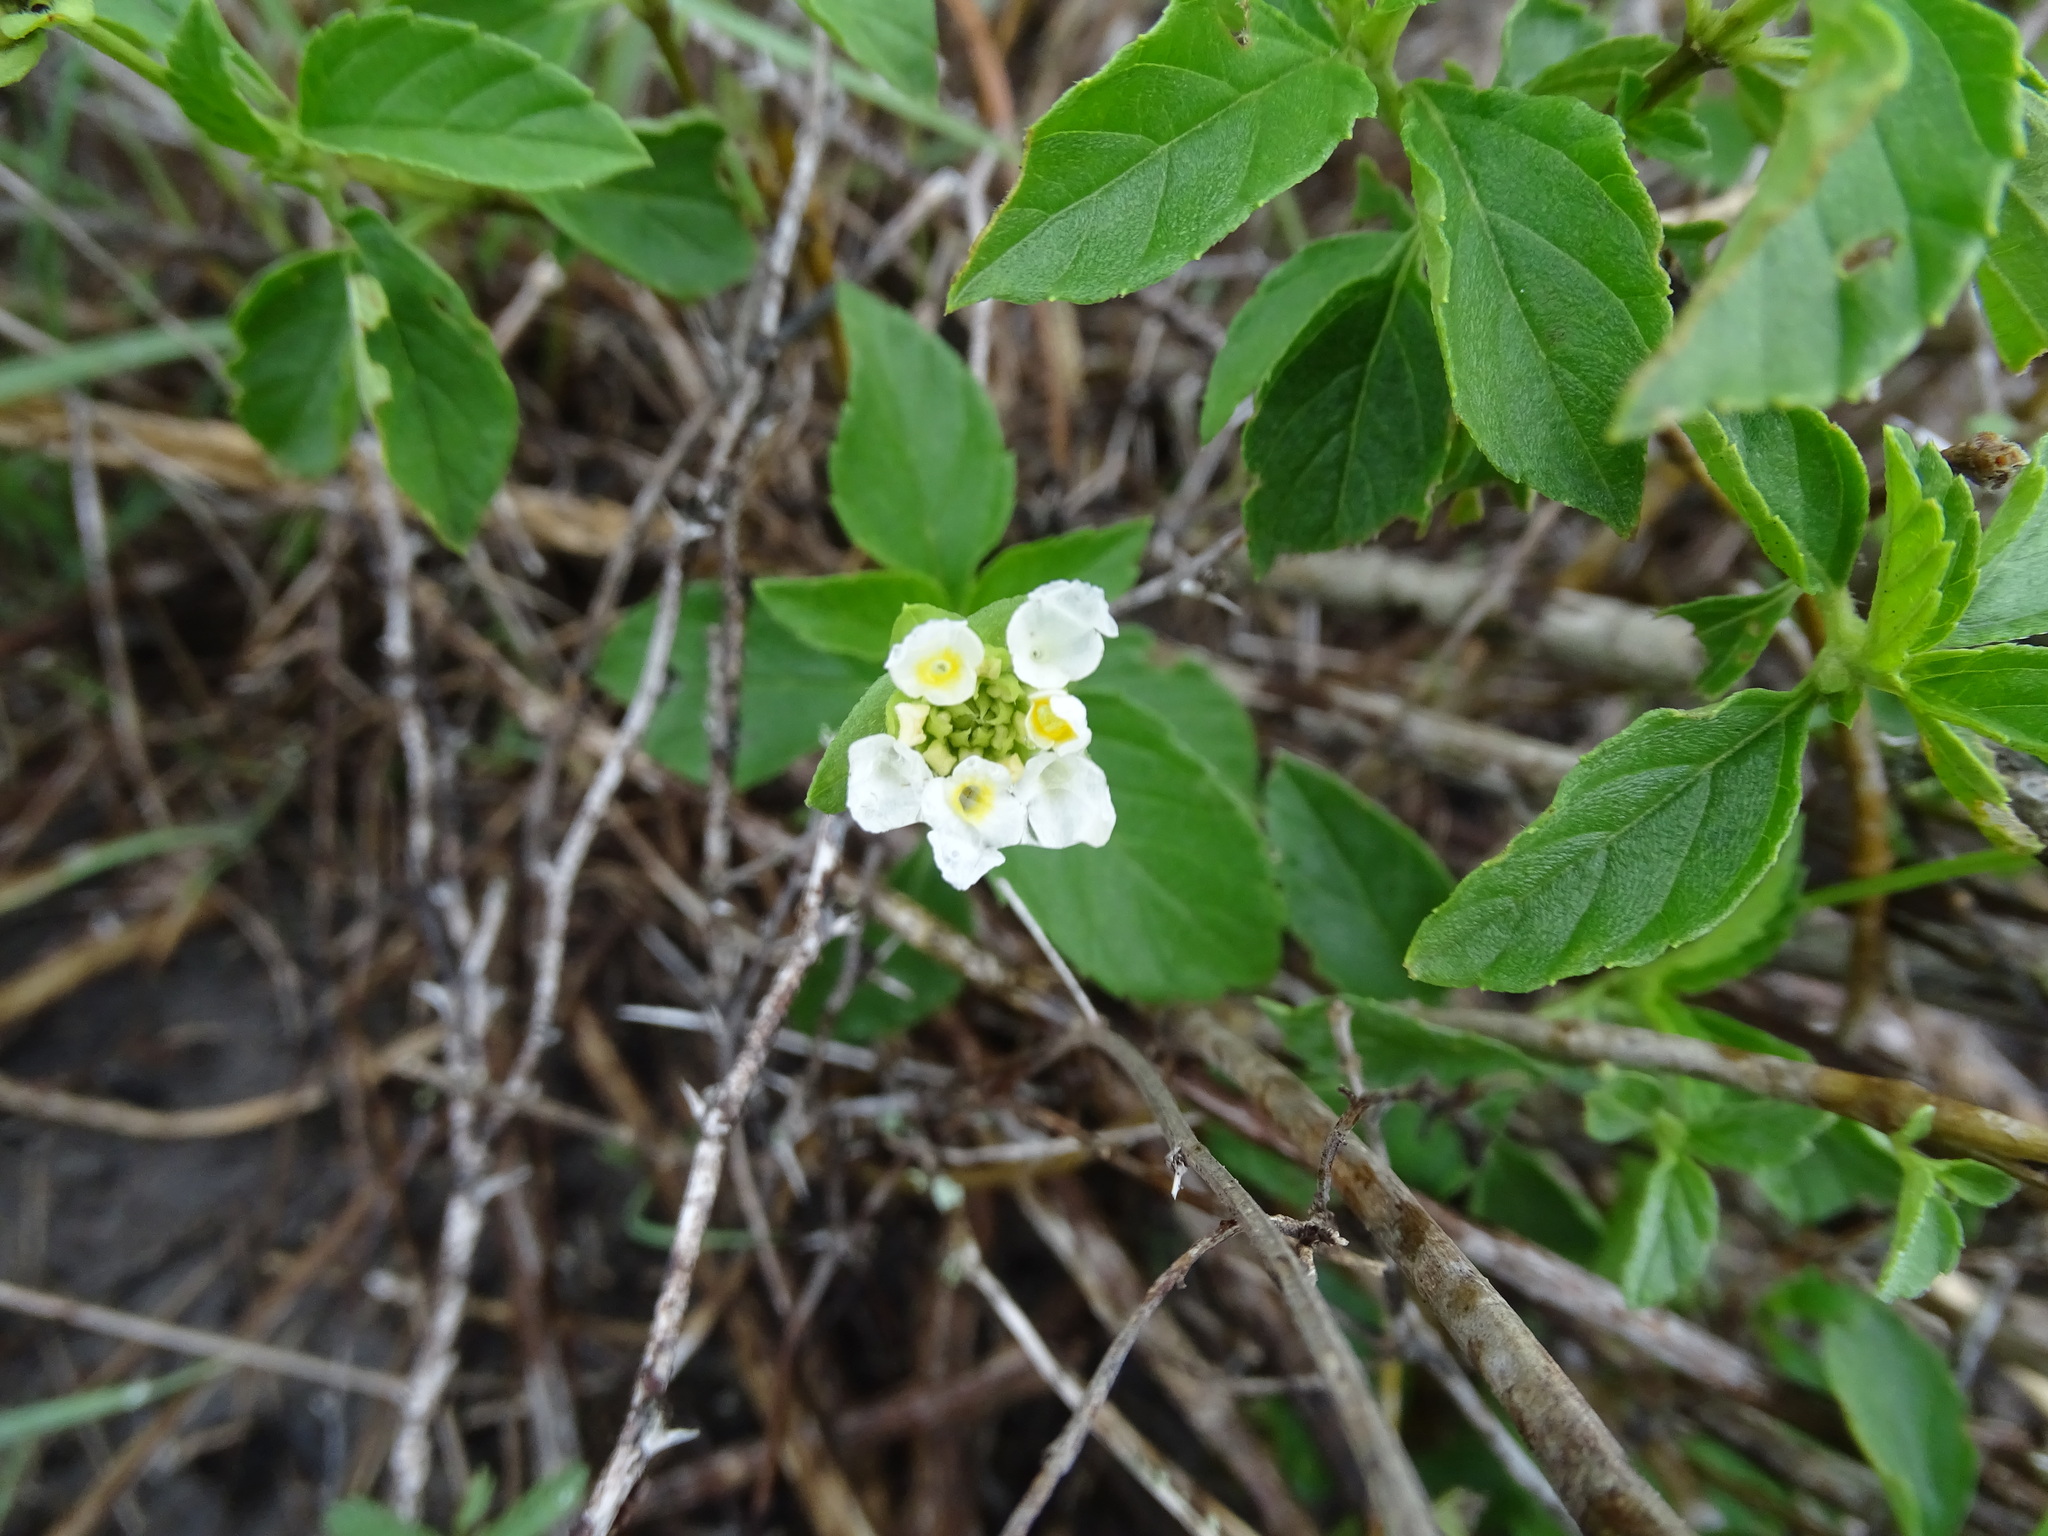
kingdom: Plantae
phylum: Tracheophyta
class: Magnoliopsida
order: Lamiales
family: Verbenaceae
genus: Lantana
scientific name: Lantana achyranthifolia
